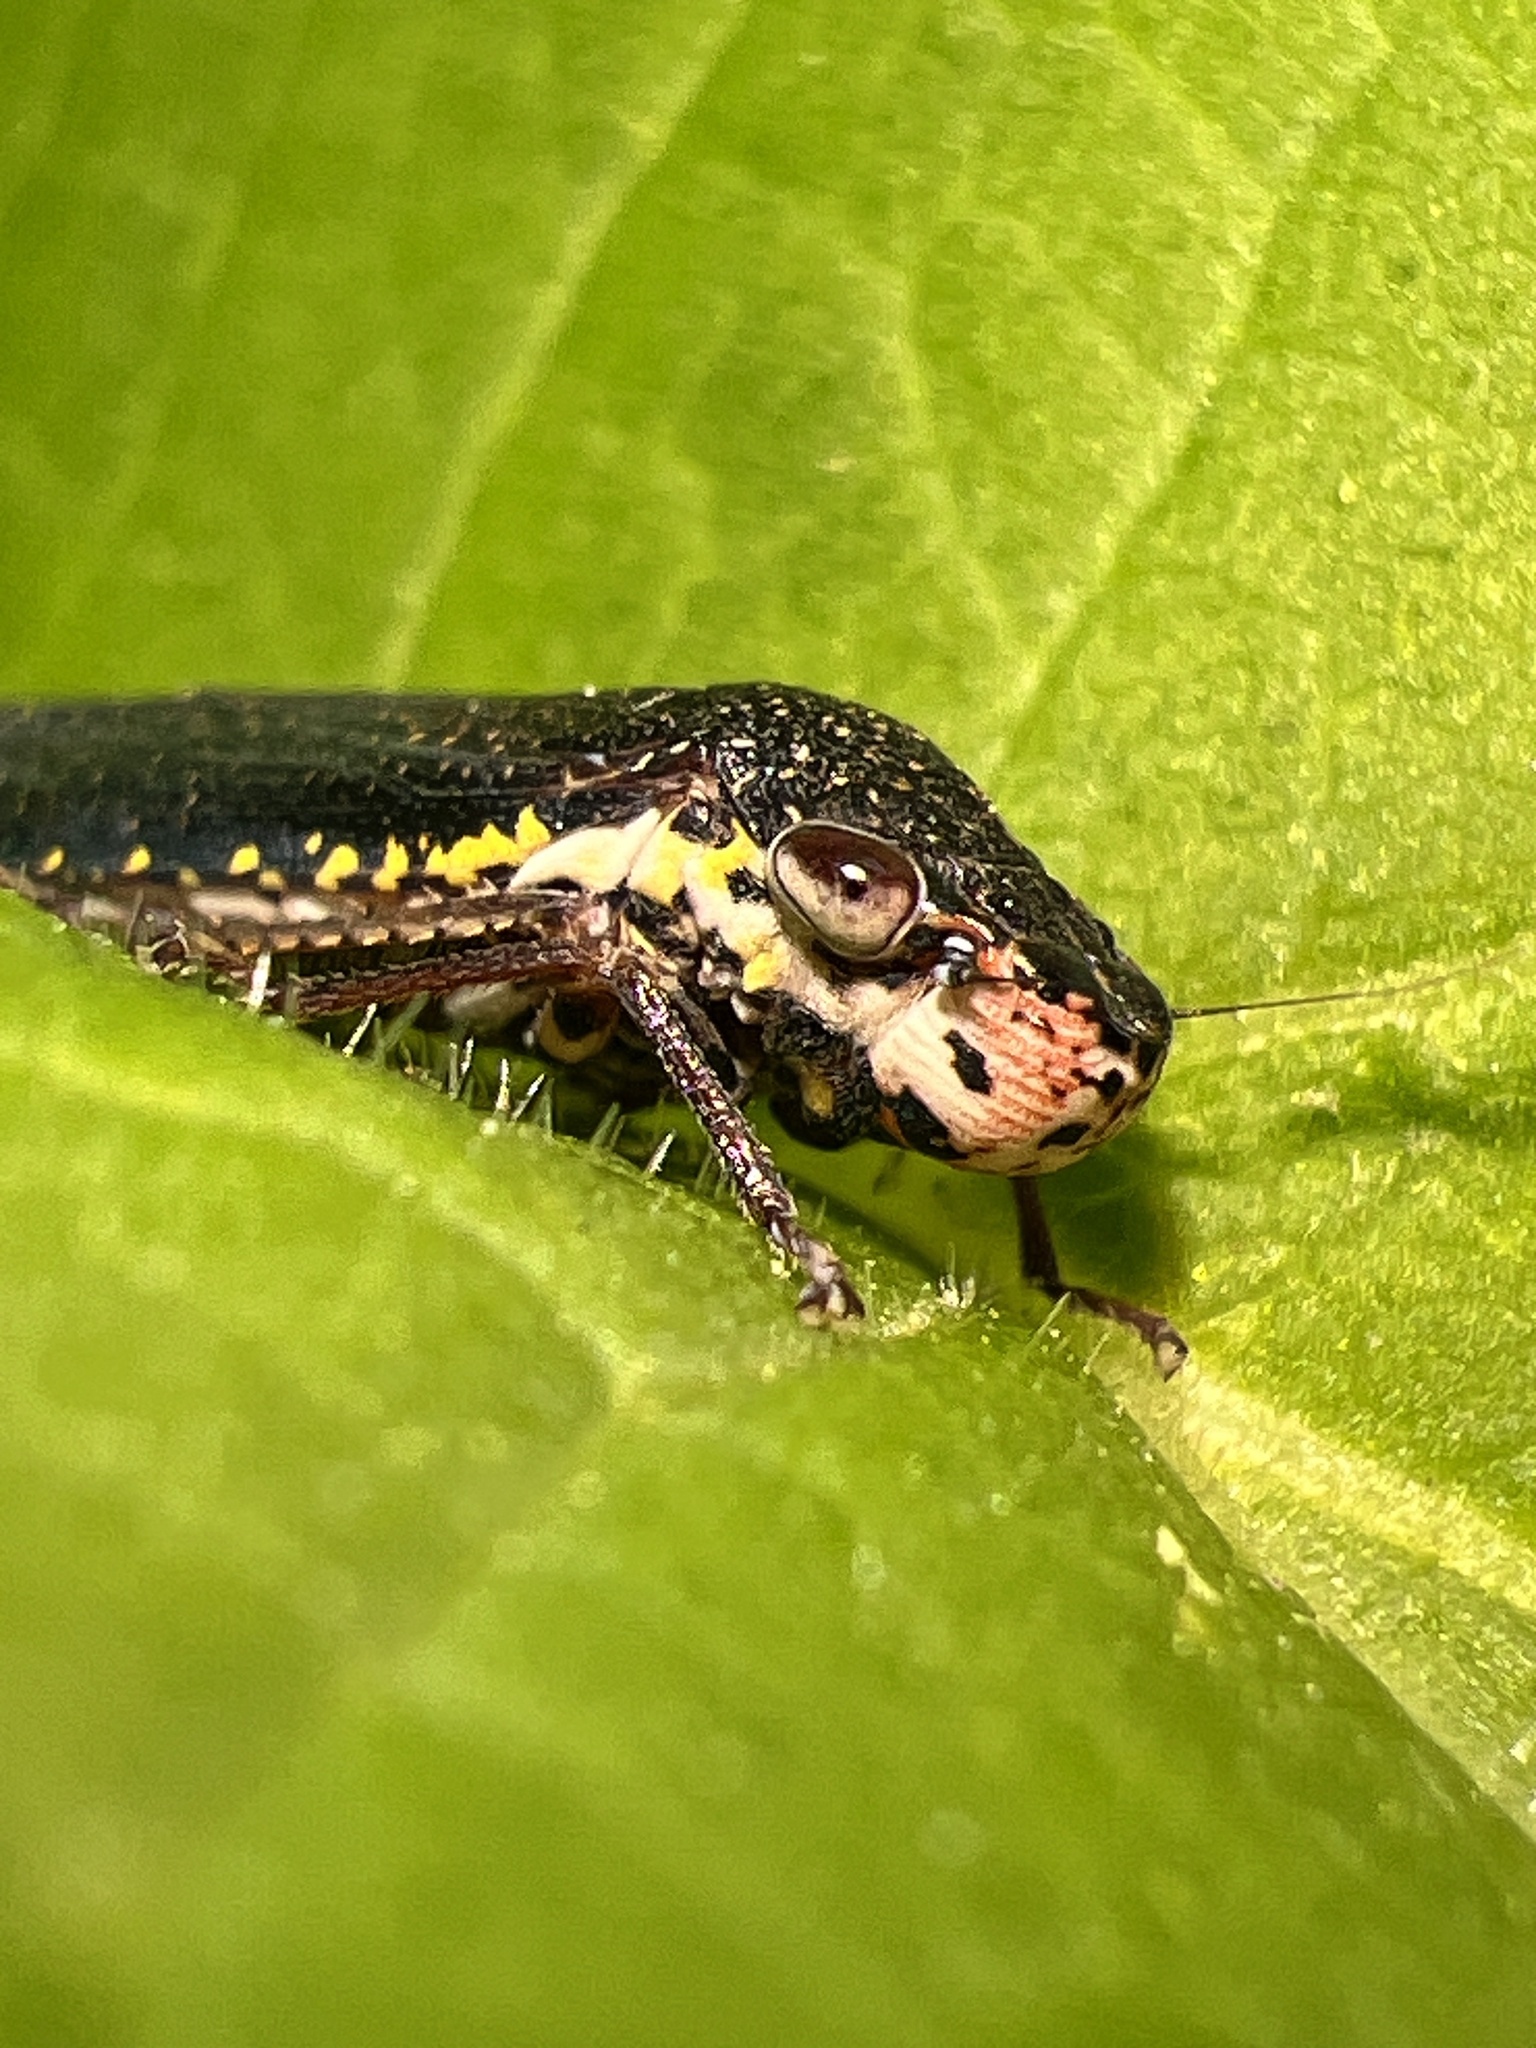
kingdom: Animalia
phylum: Arthropoda
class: Insecta
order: Hemiptera
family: Cicadellidae
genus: Paraulacizes
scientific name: Paraulacizes irrorata
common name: Speckled sharpshooter
